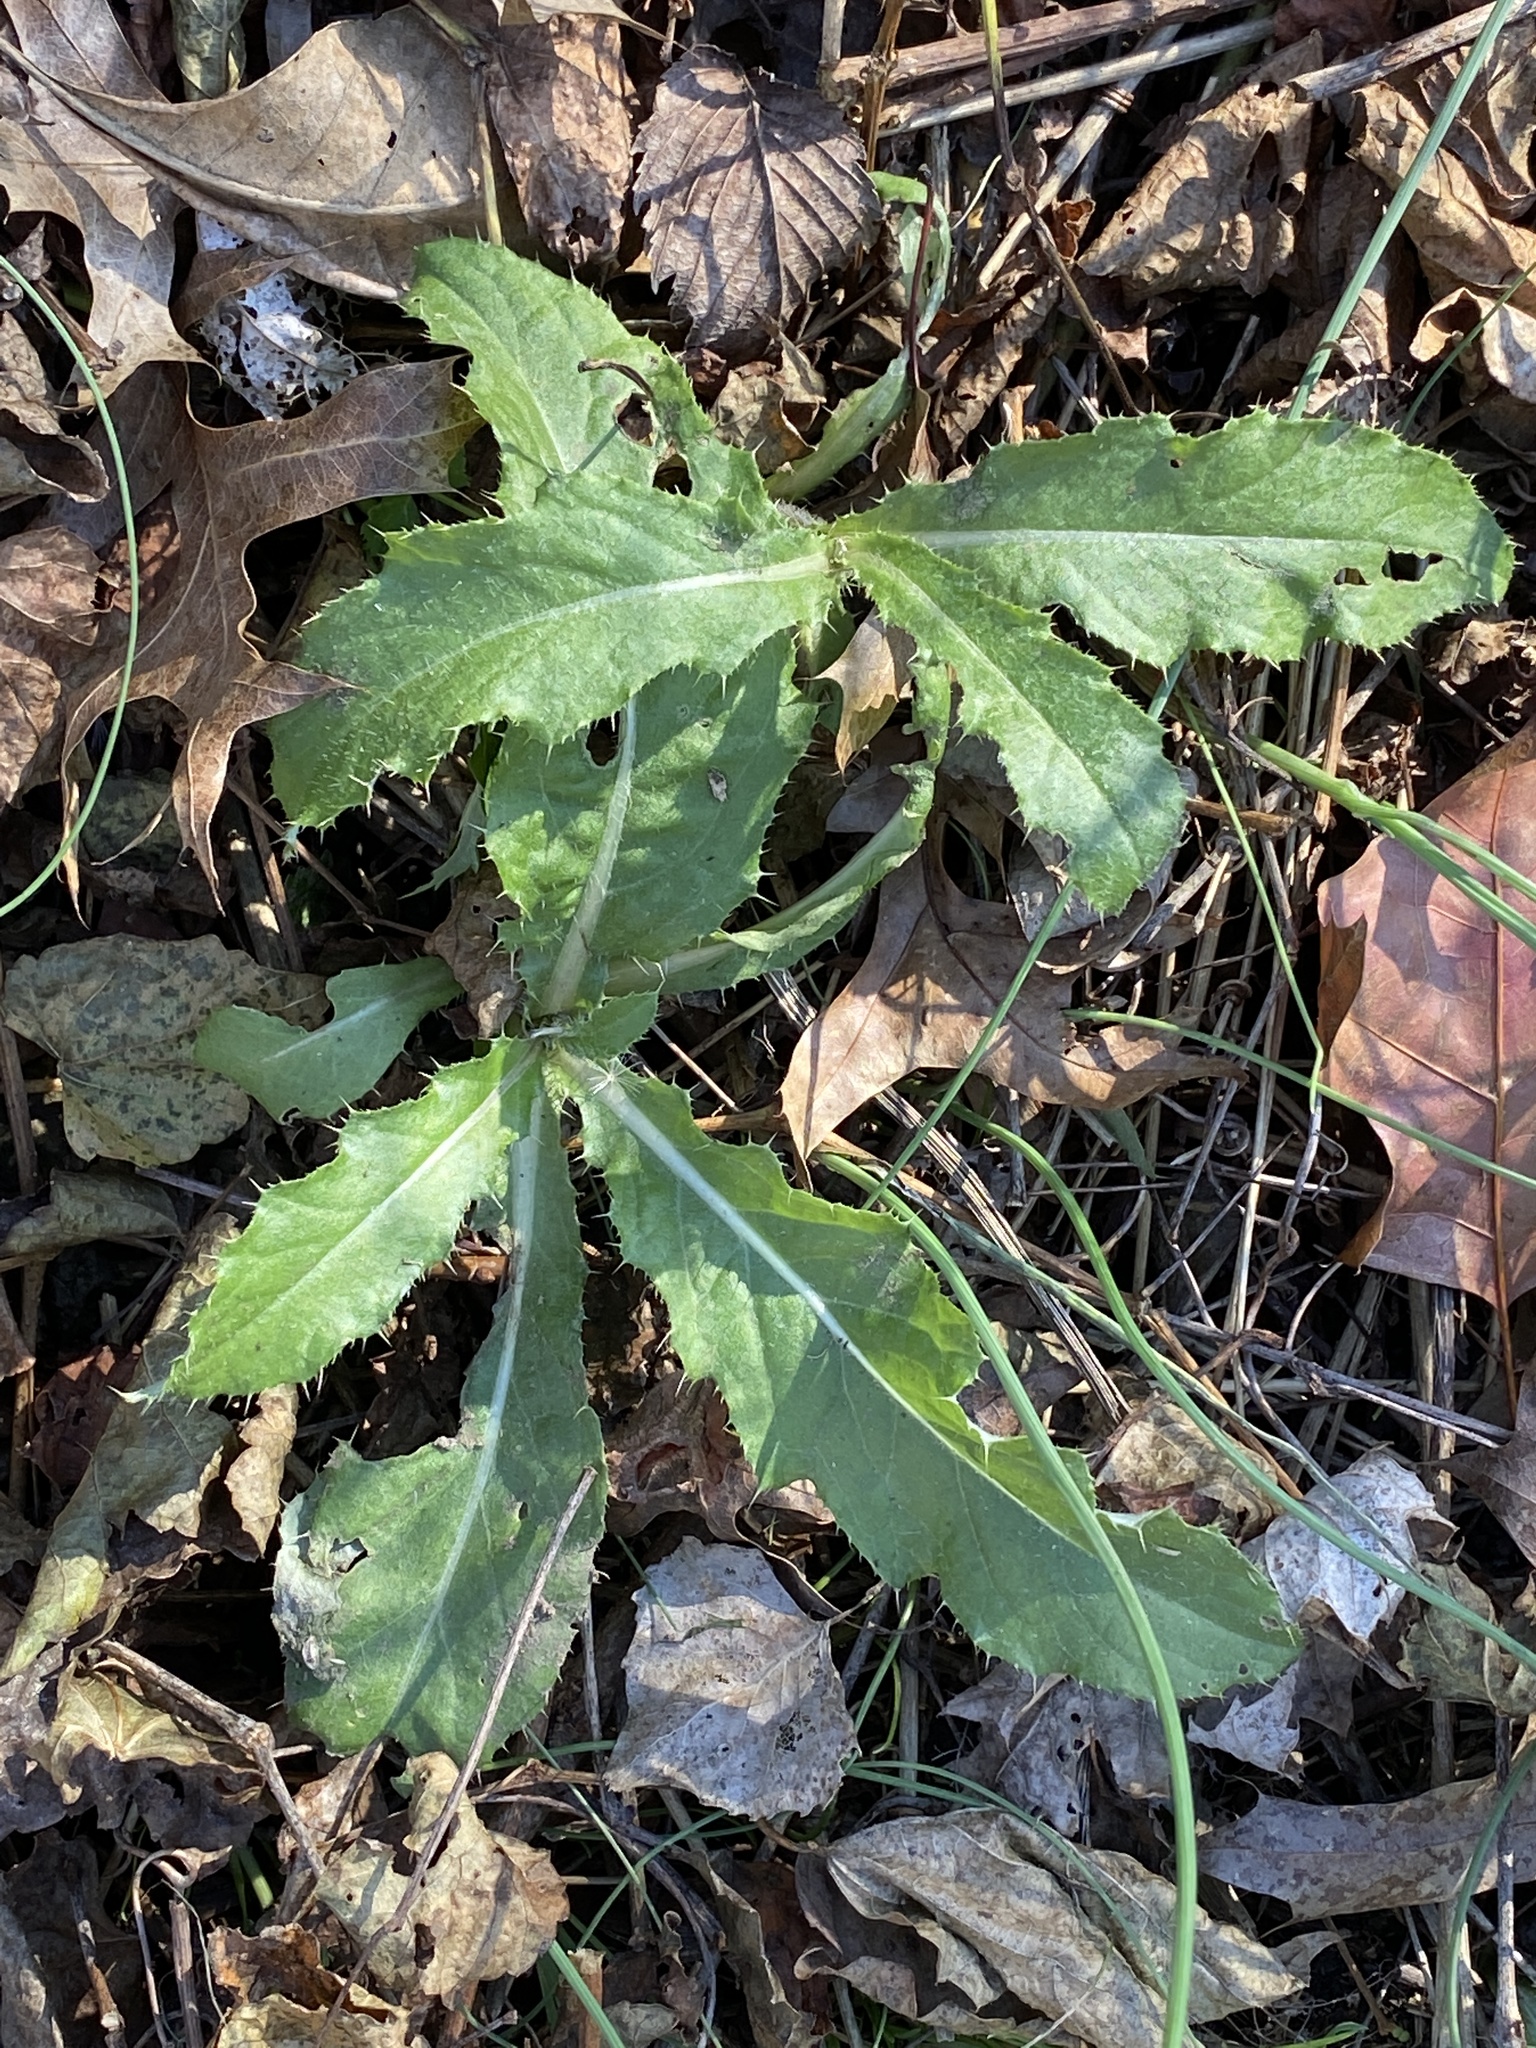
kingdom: Plantae
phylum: Tracheophyta
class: Magnoliopsida
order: Asterales
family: Asteraceae
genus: Cirsium
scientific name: Cirsium arvense
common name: Creeping thistle
